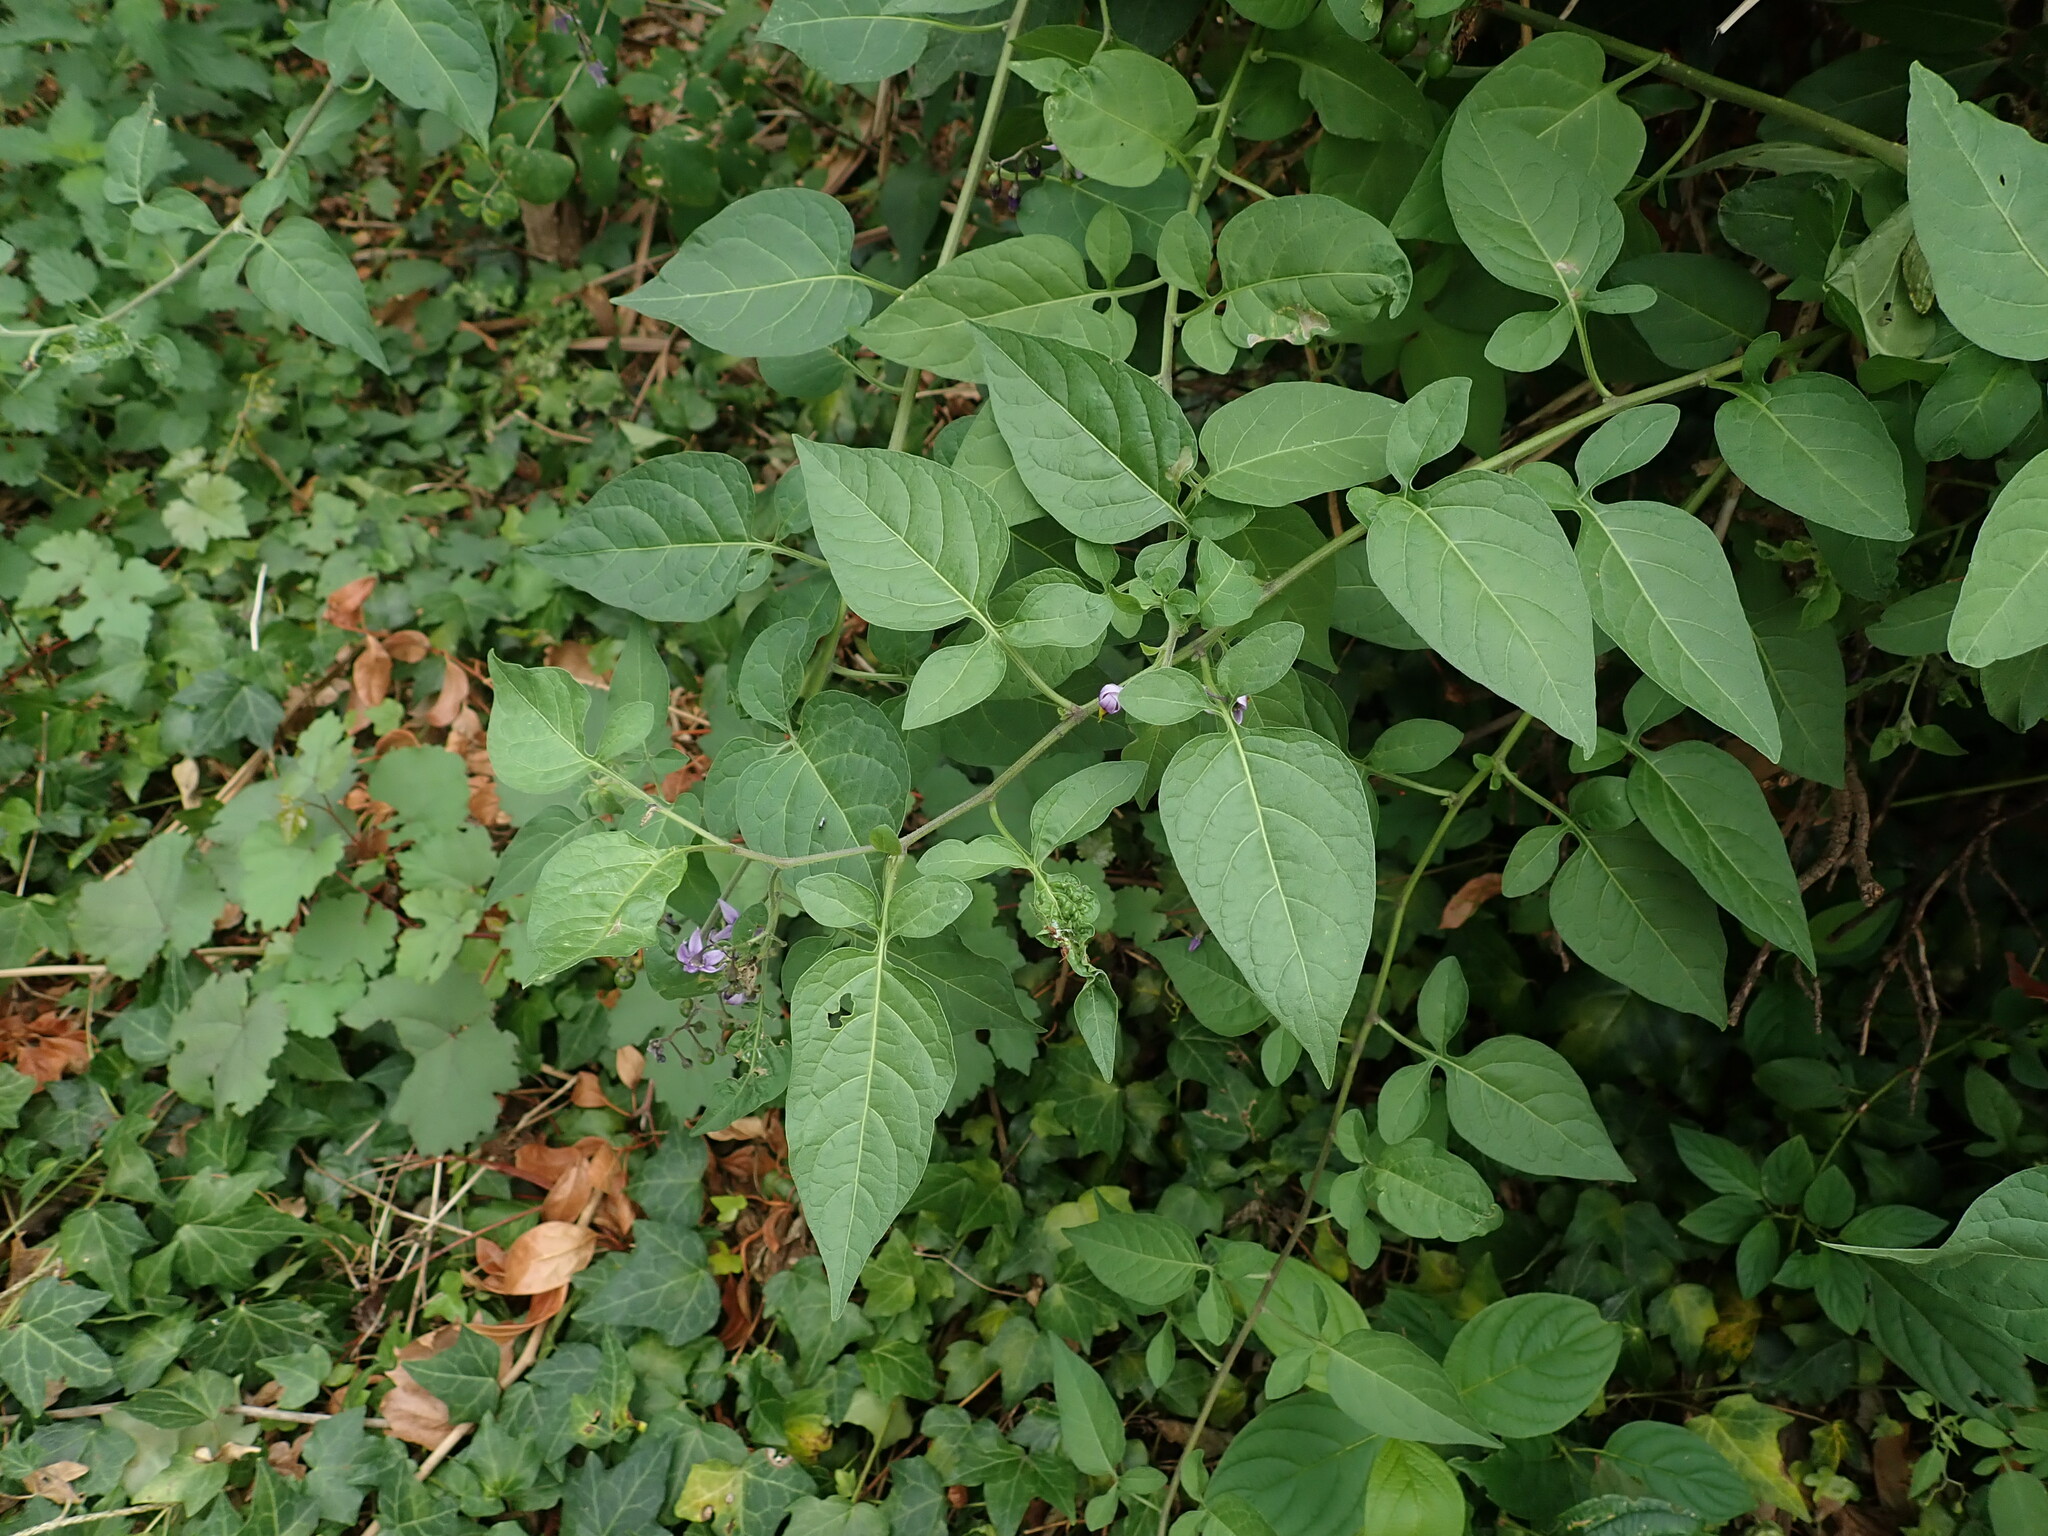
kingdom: Plantae
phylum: Tracheophyta
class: Magnoliopsida
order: Solanales
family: Solanaceae
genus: Solanum
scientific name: Solanum dulcamara
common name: Climbing nightshade
